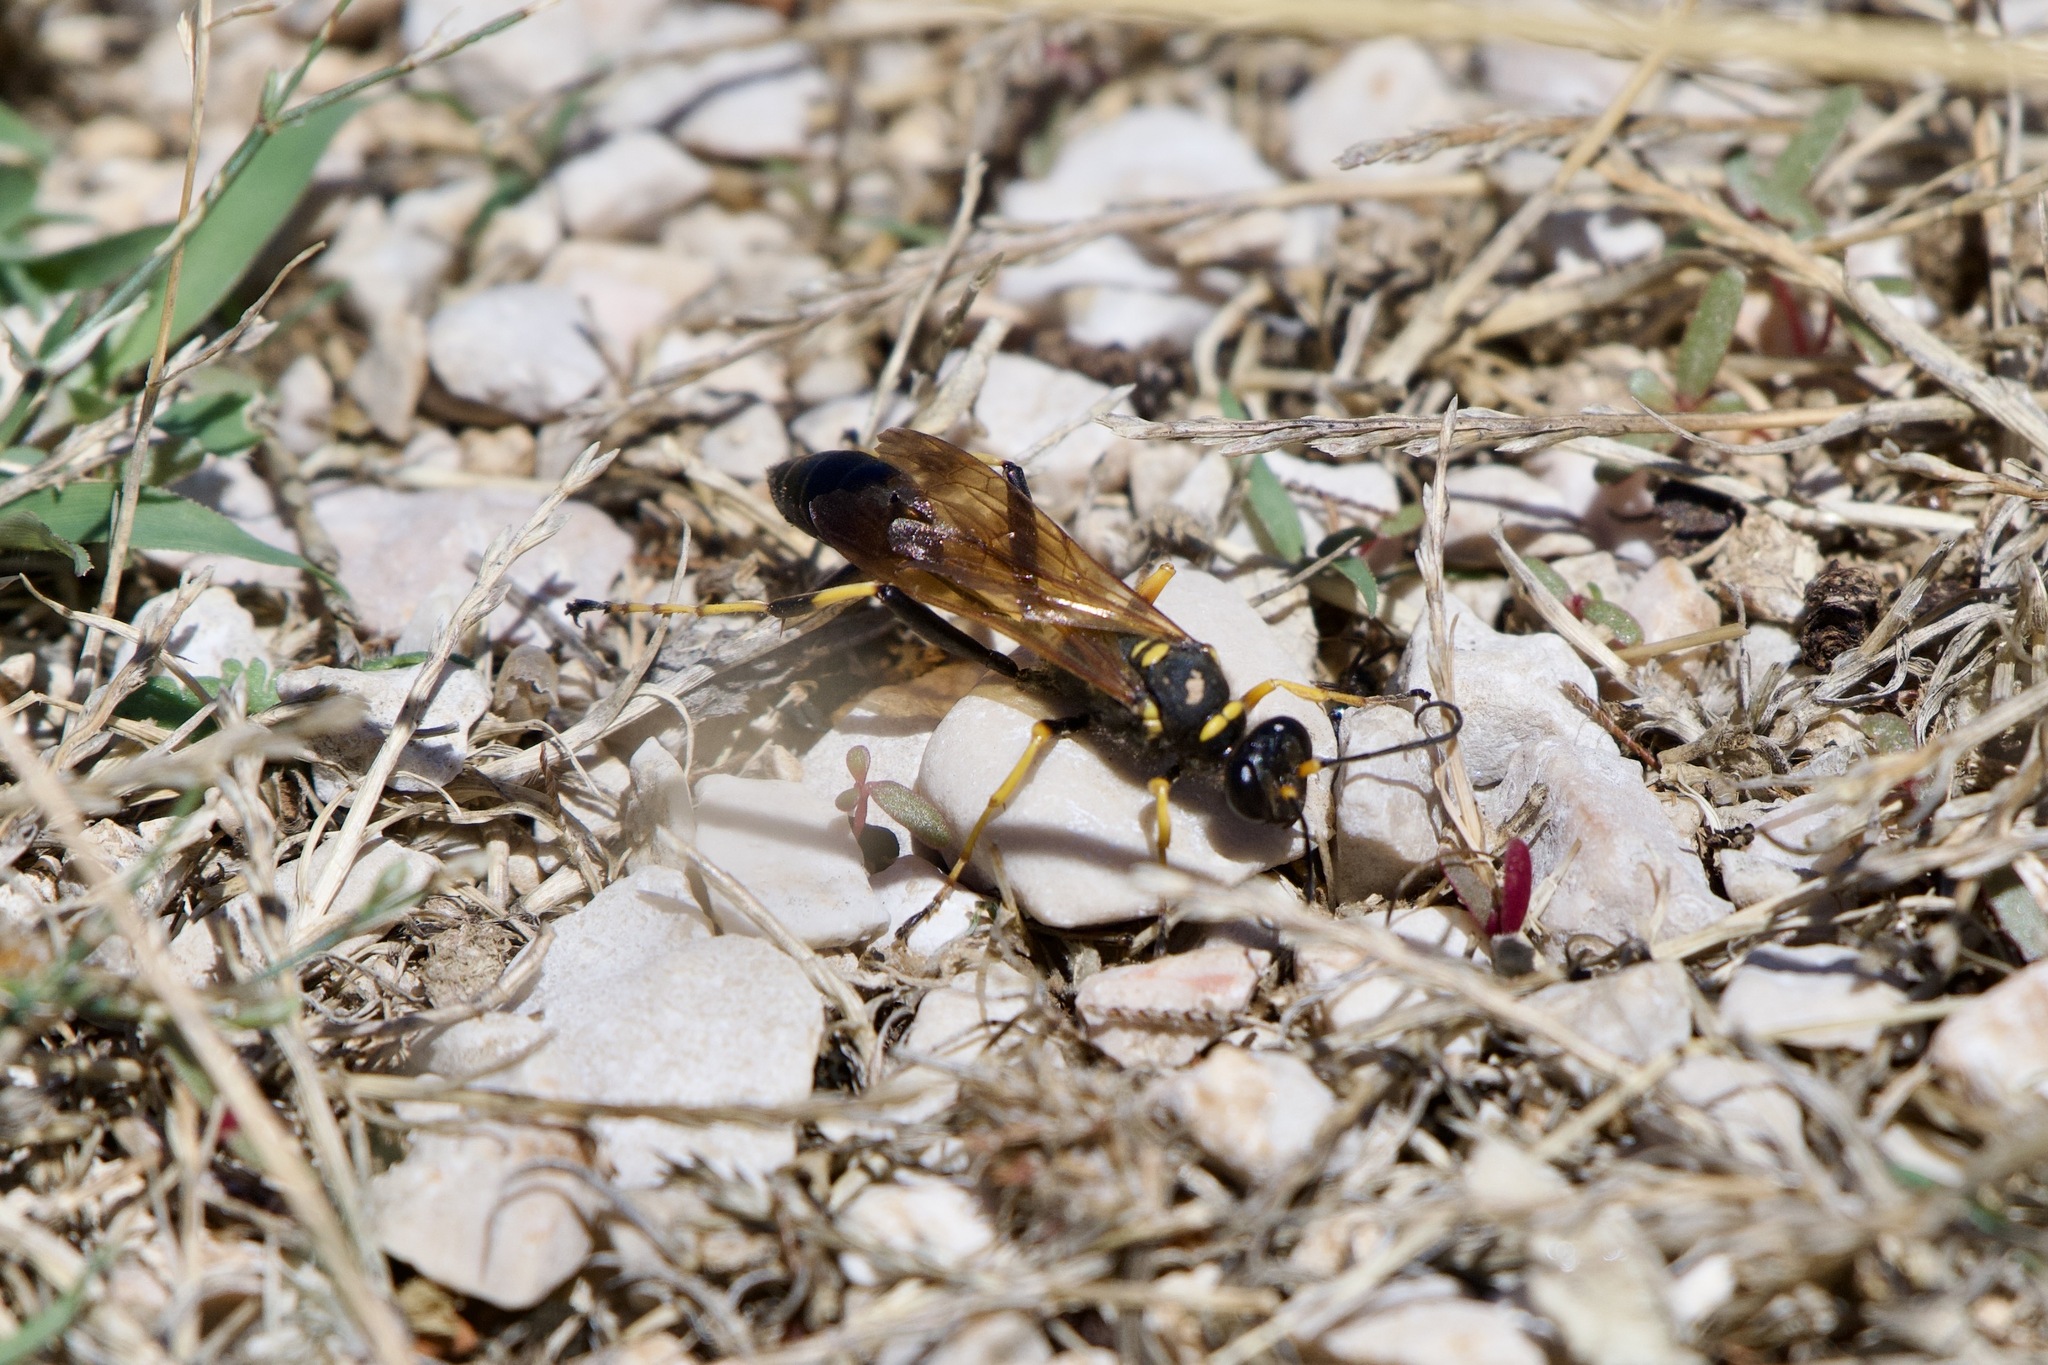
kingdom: Animalia
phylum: Arthropoda
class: Insecta
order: Hymenoptera
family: Sphecidae
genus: Sceliphron
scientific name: Sceliphron caementarium
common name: Mud dauber
